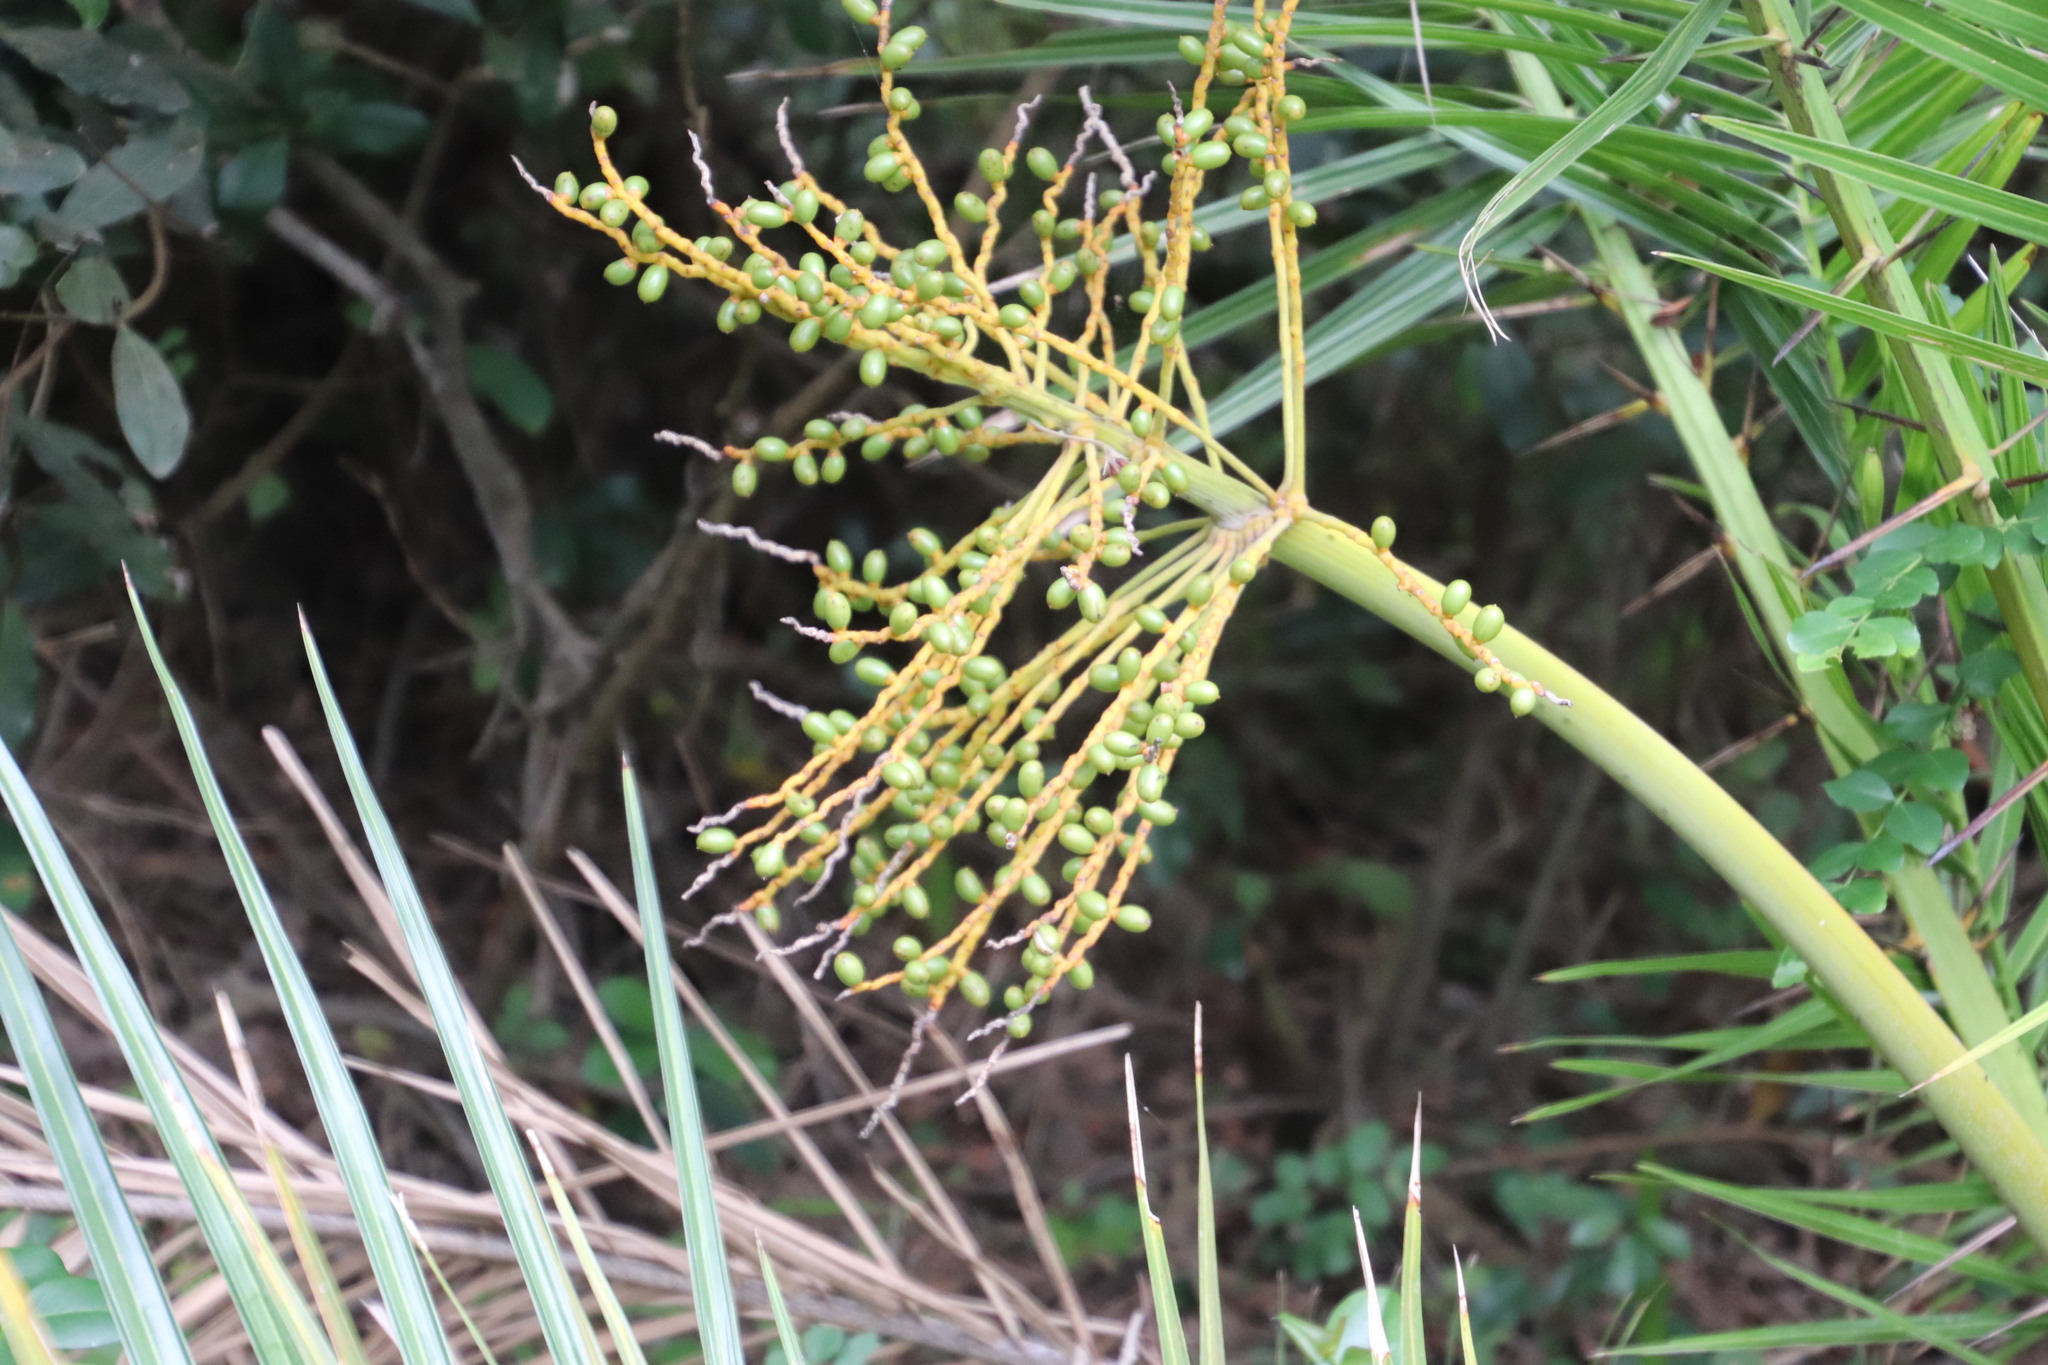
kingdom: Plantae
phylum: Tracheophyta
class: Liliopsida
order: Arecales
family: Arecaceae
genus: Phoenix
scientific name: Phoenix reclinata
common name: Senegal date palm
